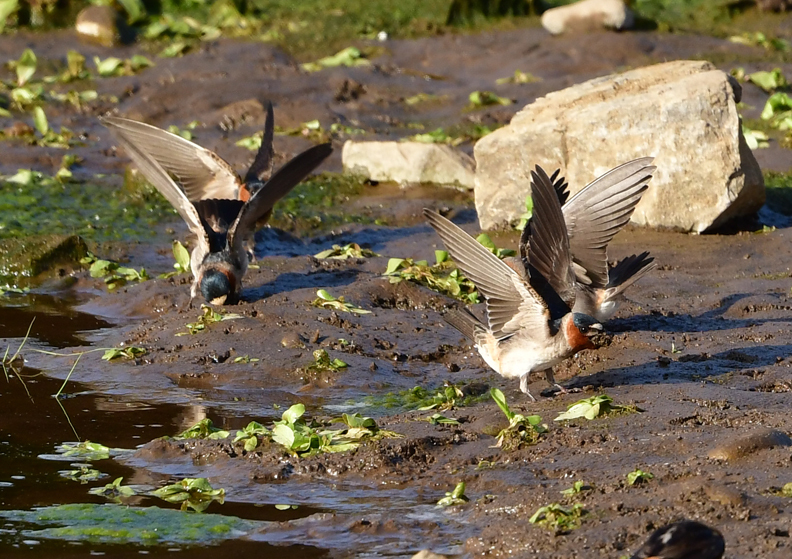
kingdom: Animalia
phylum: Chordata
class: Aves
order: Passeriformes
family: Hirundinidae
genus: Petrochelidon
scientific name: Petrochelidon pyrrhonota
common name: American cliff swallow
